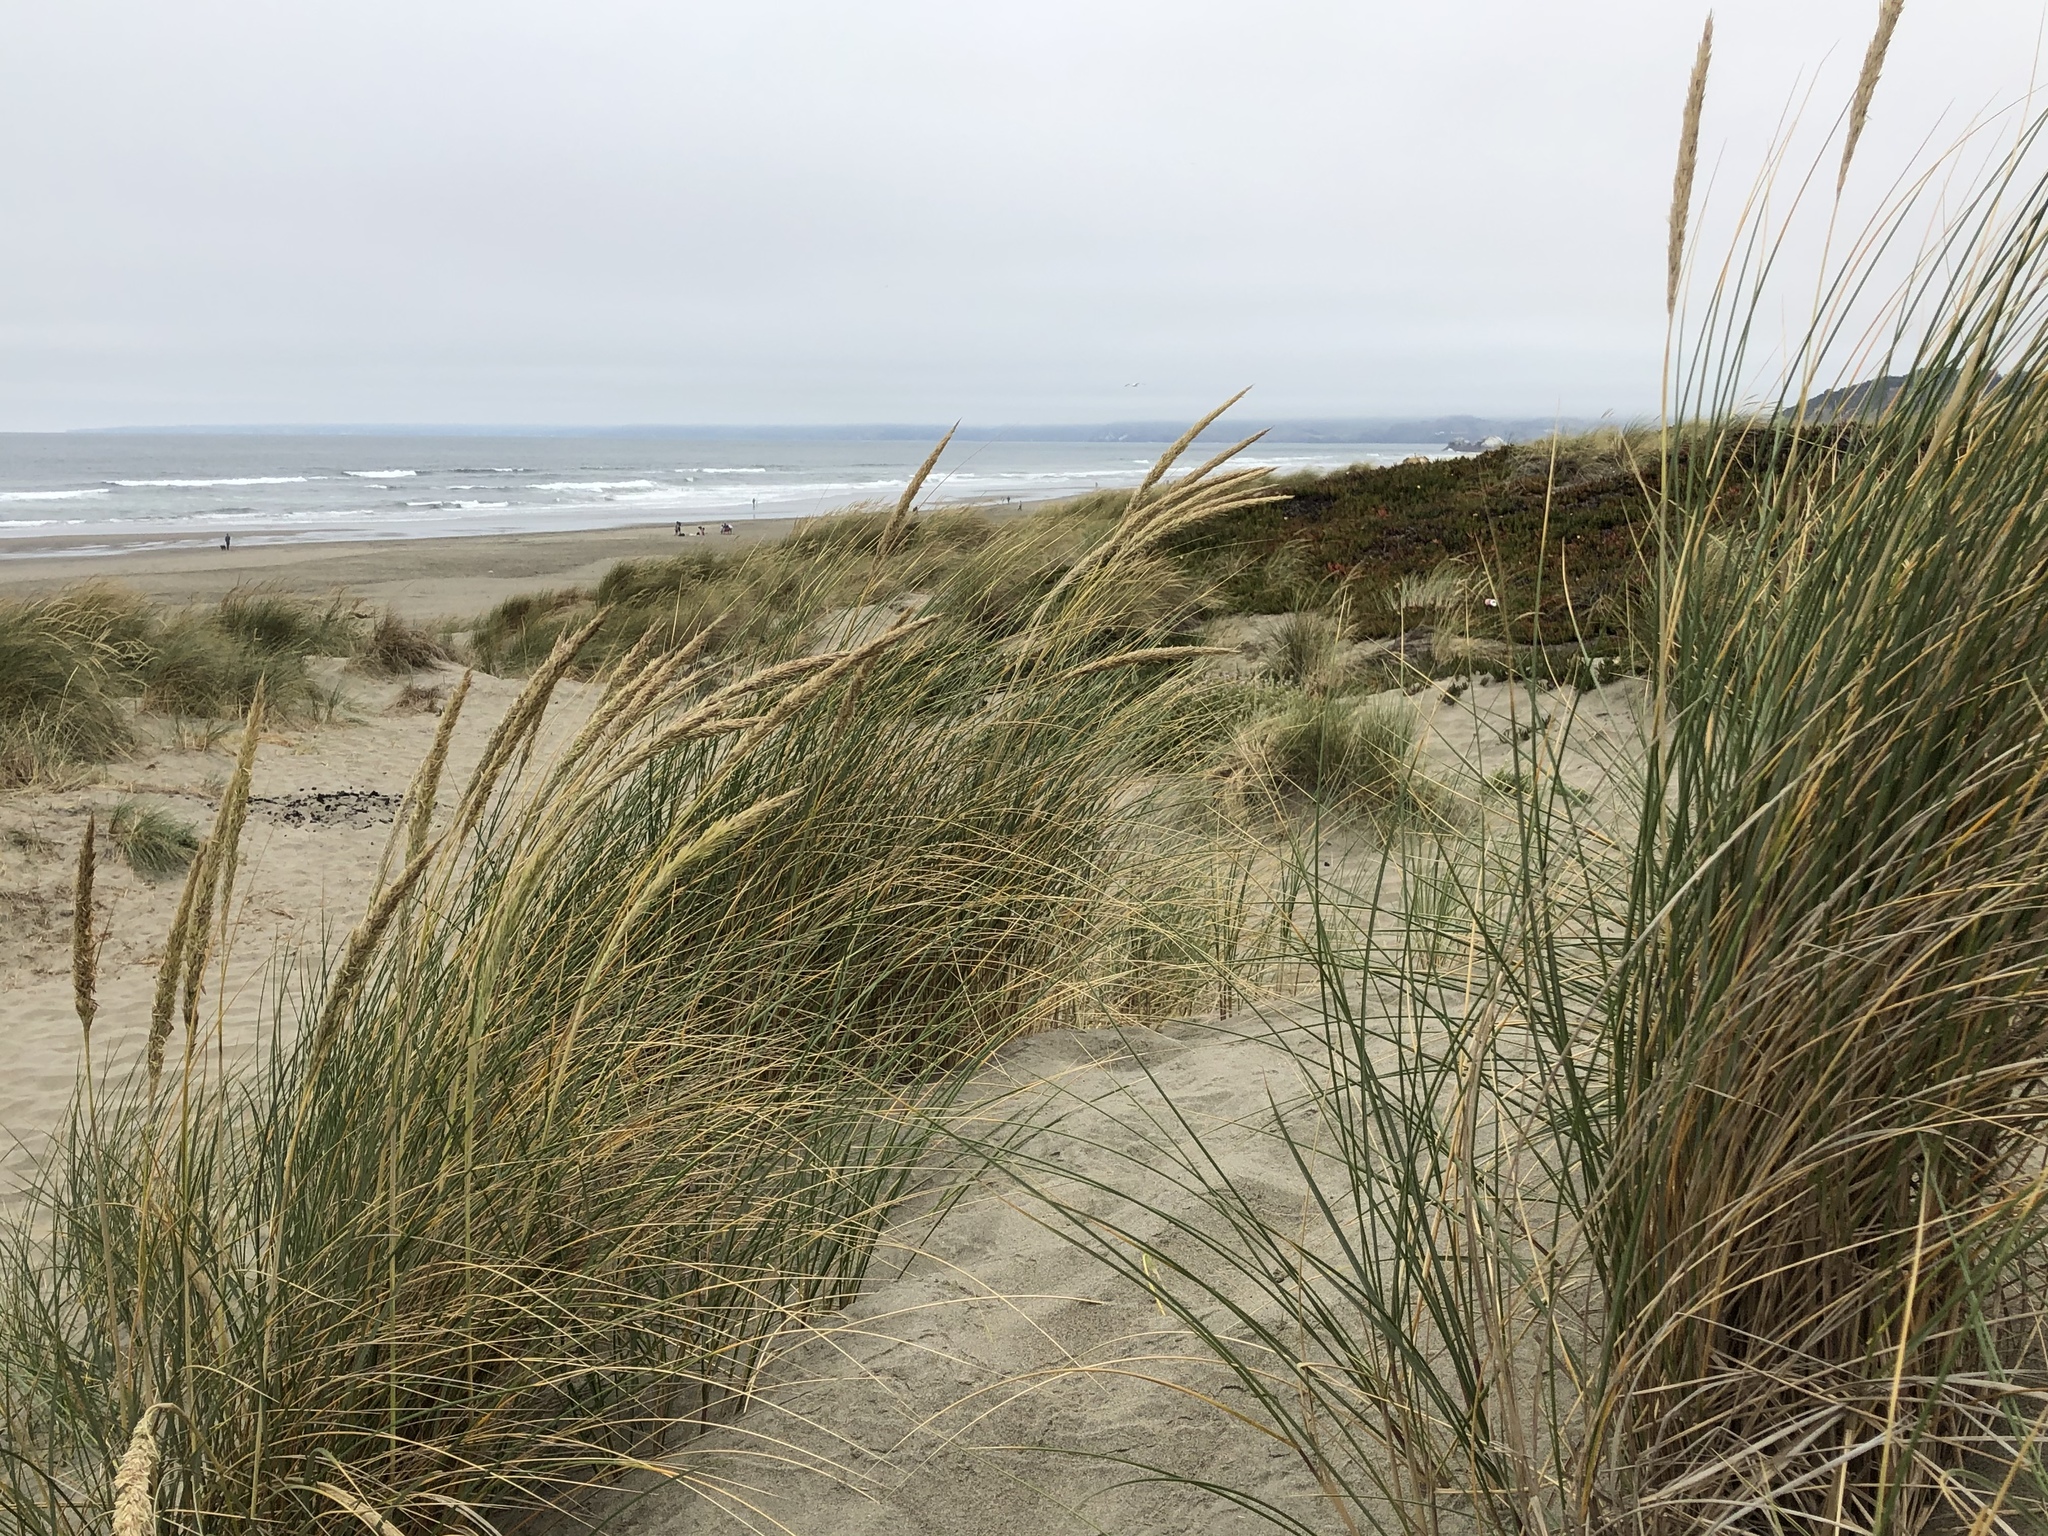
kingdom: Plantae
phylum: Tracheophyta
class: Liliopsida
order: Poales
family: Poaceae
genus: Calamagrostis
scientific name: Calamagrostis arenaria
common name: European beachgrass
